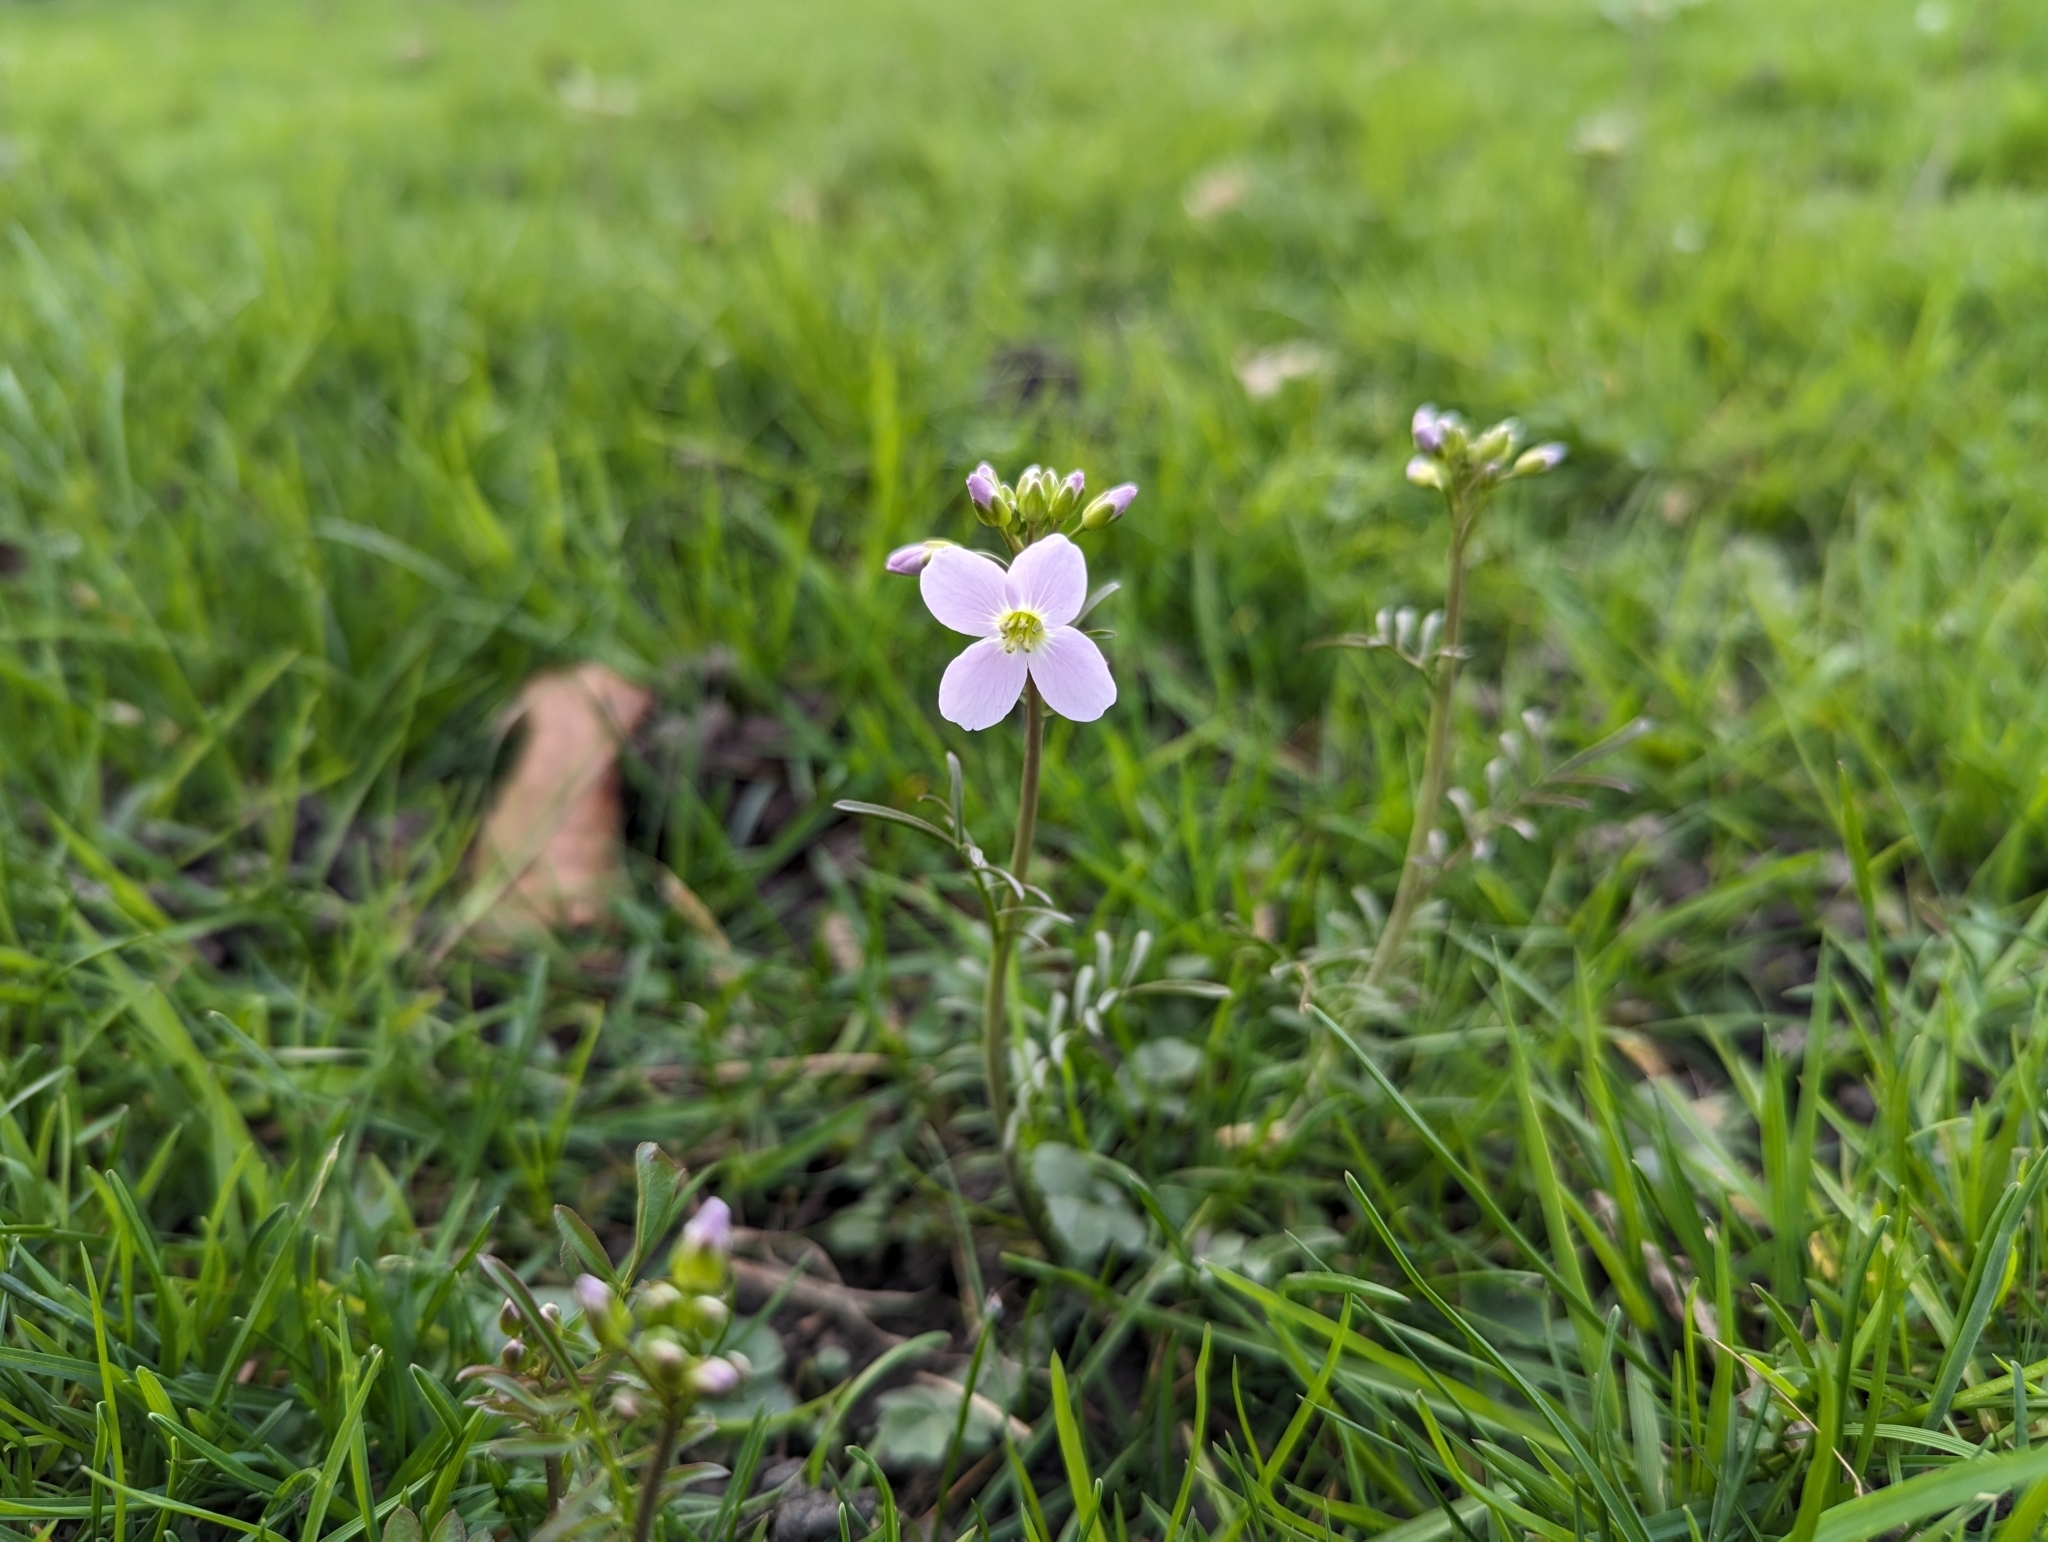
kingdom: Plantae
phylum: Tracheophyta
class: Magnoliopsida
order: Brassicales
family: Brassicaceae
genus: Cardamine
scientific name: Cardamine pratensis
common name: Cuckoo flower
